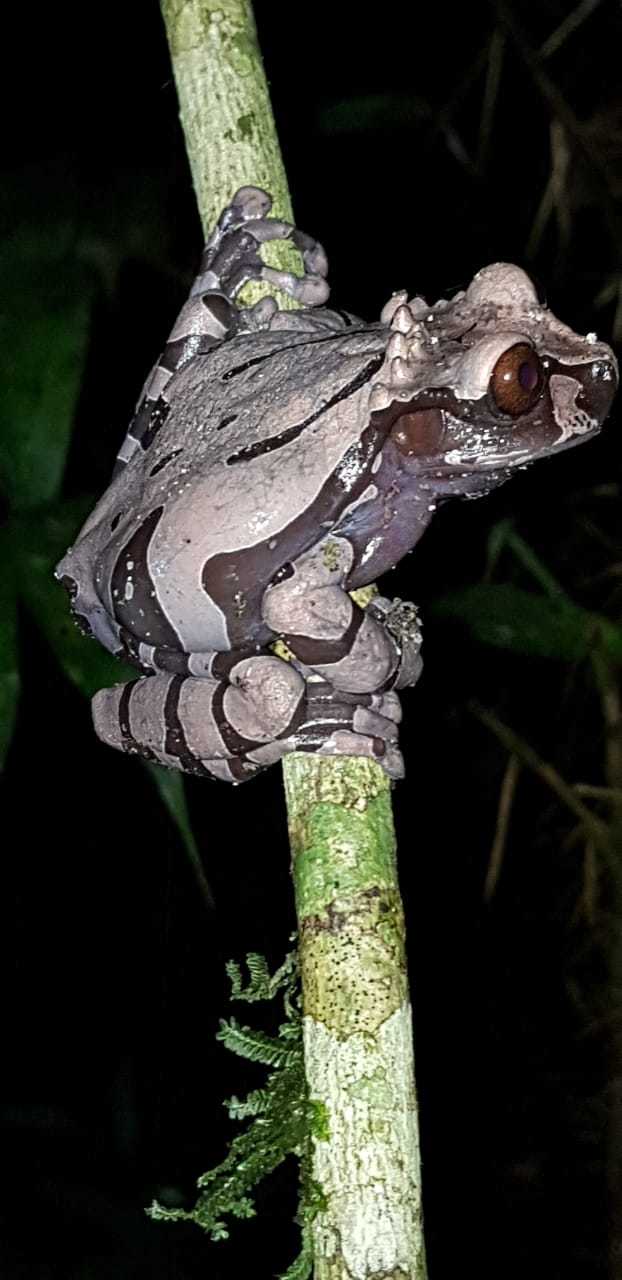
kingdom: Animalia
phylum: Chordata
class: Amphibia
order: Anura
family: Hylidae
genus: Triprion
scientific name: Triprion spinosus
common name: Coronated treefrog
